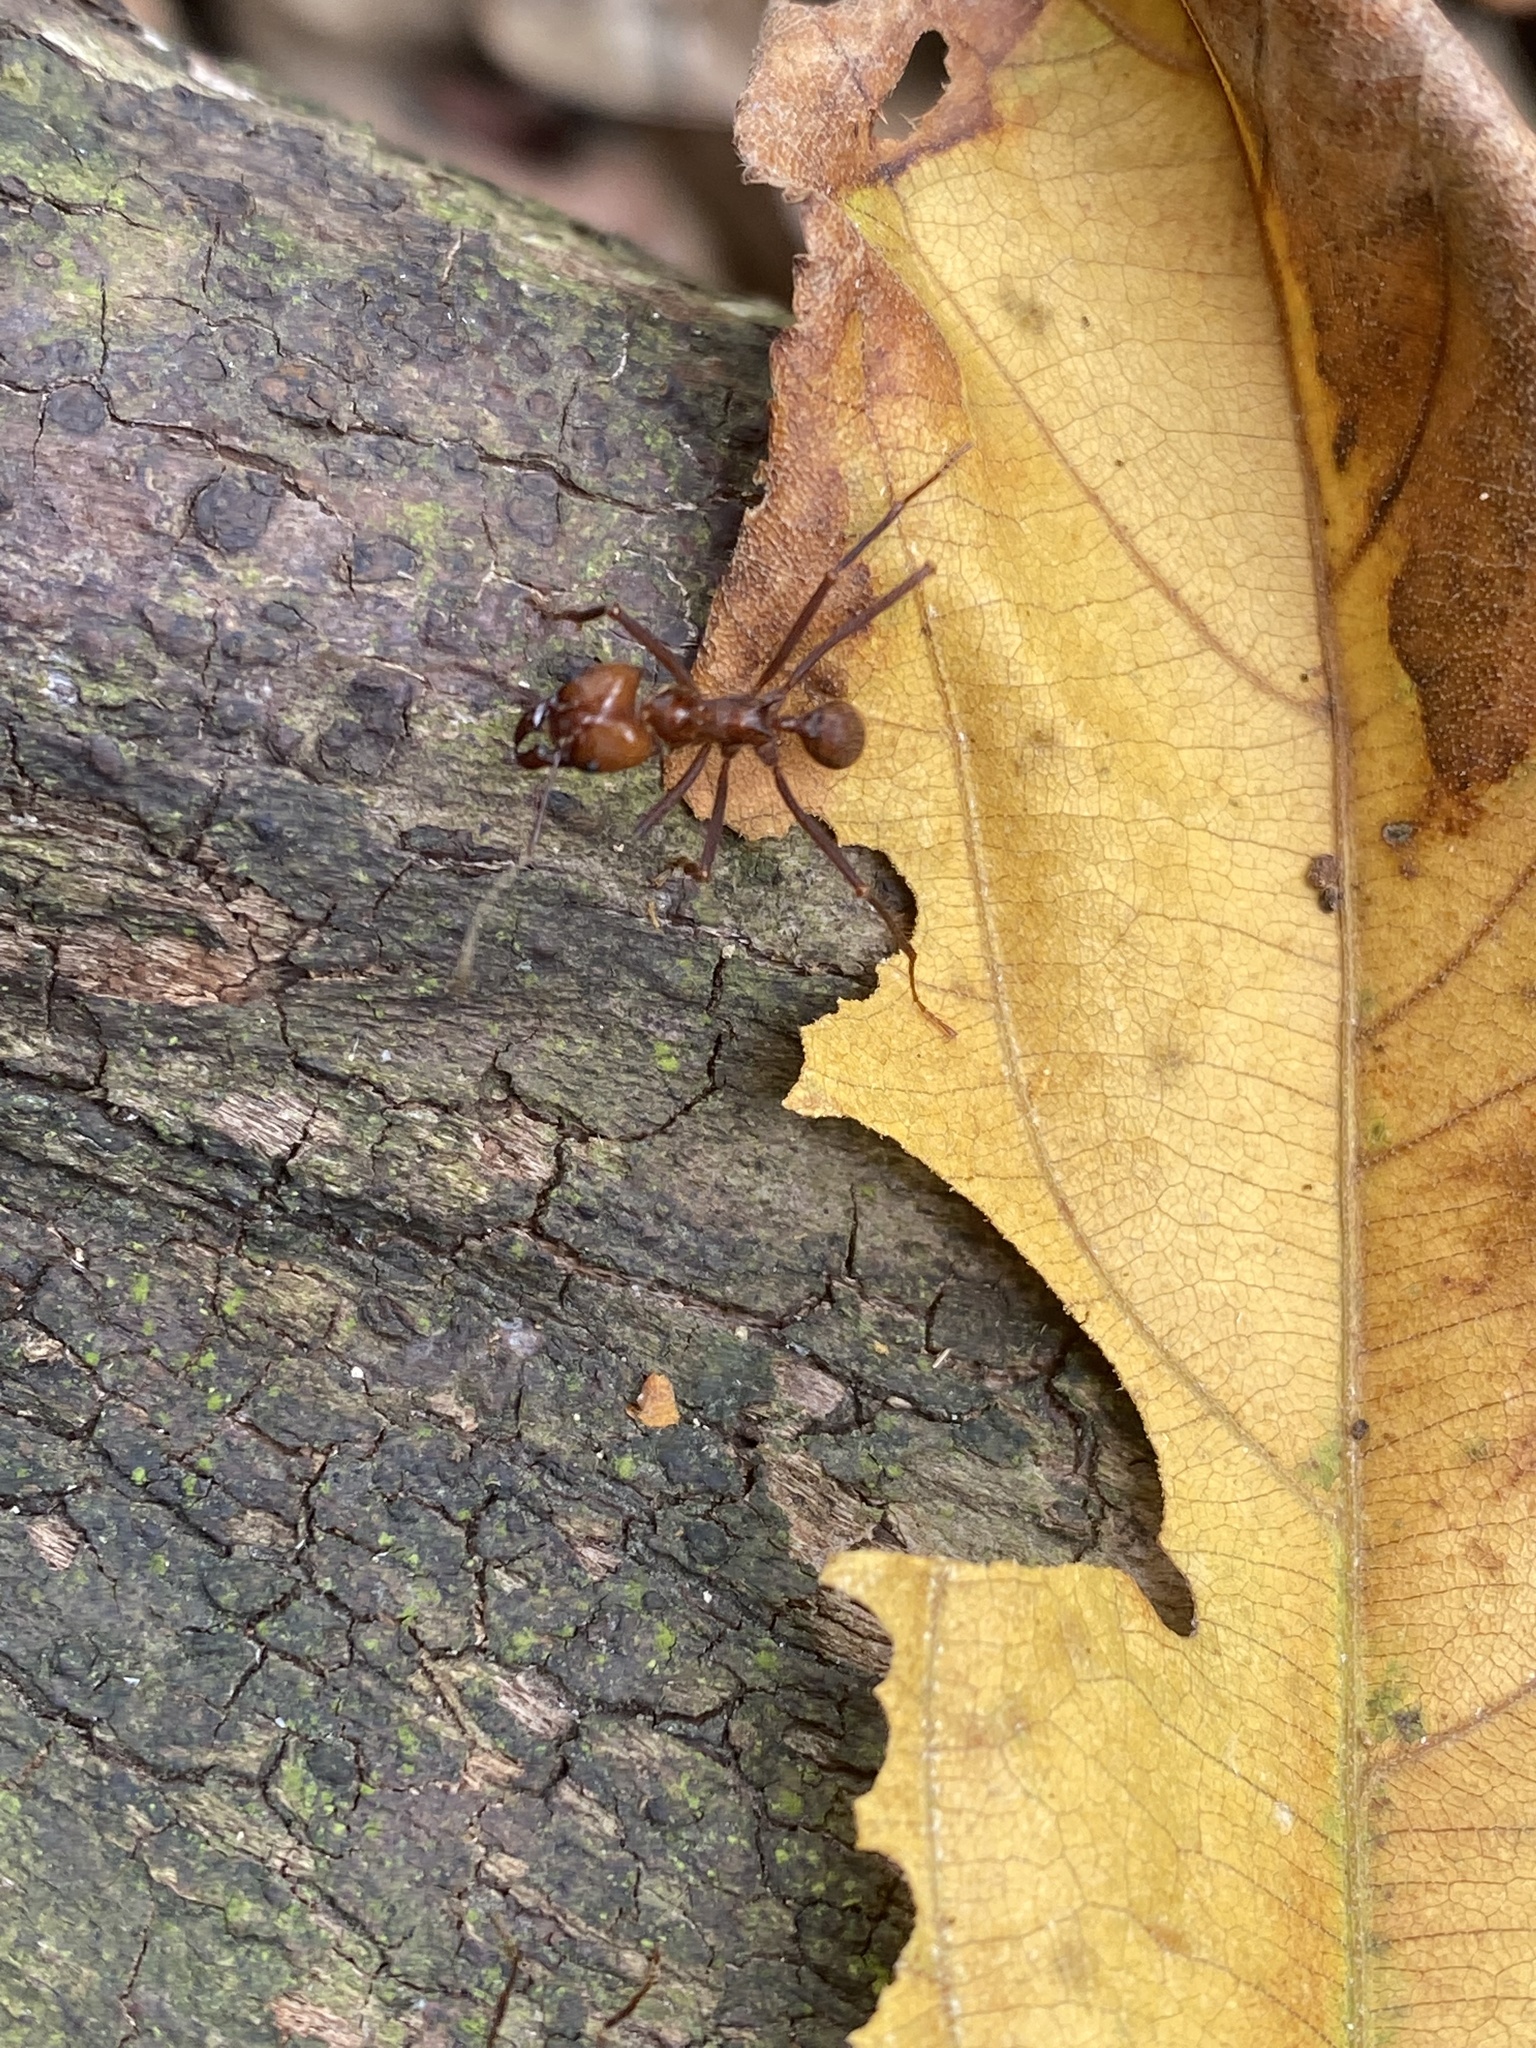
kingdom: Animalia
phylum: Arthropoda
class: Insecta
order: Hymenoptera
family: Formicidae
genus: Atta
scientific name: Atta cephalotes
